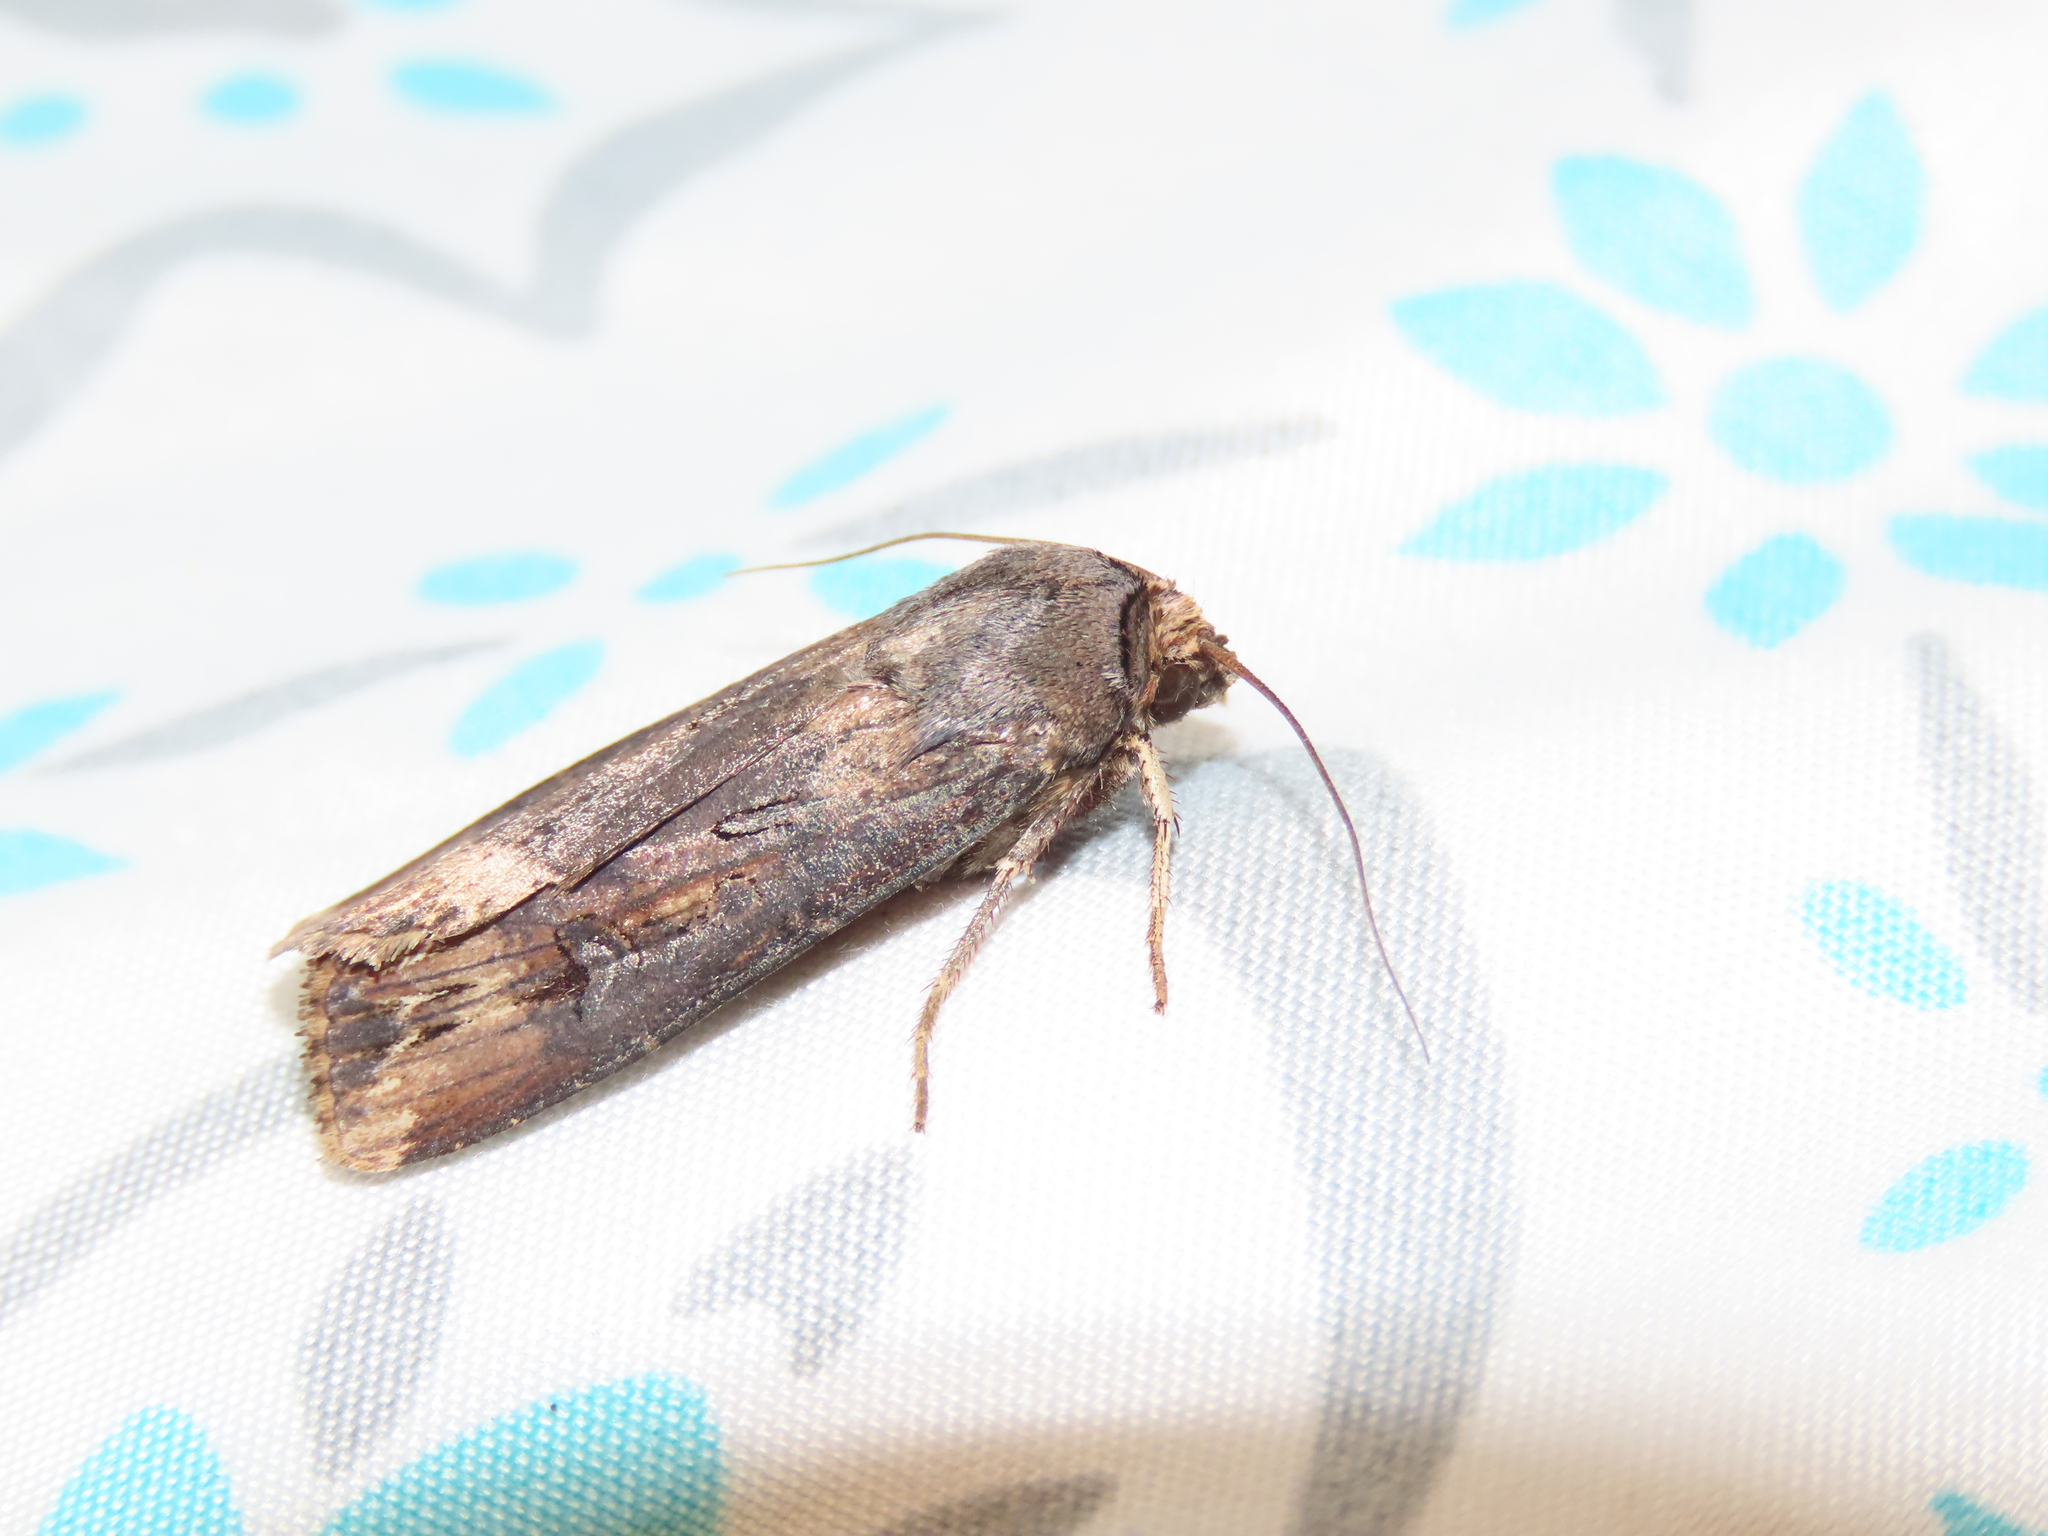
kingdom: Animalia
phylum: Arthropoda
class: Insecta
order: Lepidoptera
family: Noctuidae
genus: Agrotis
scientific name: Agrotis ipsilon
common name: Dark sword-grass
